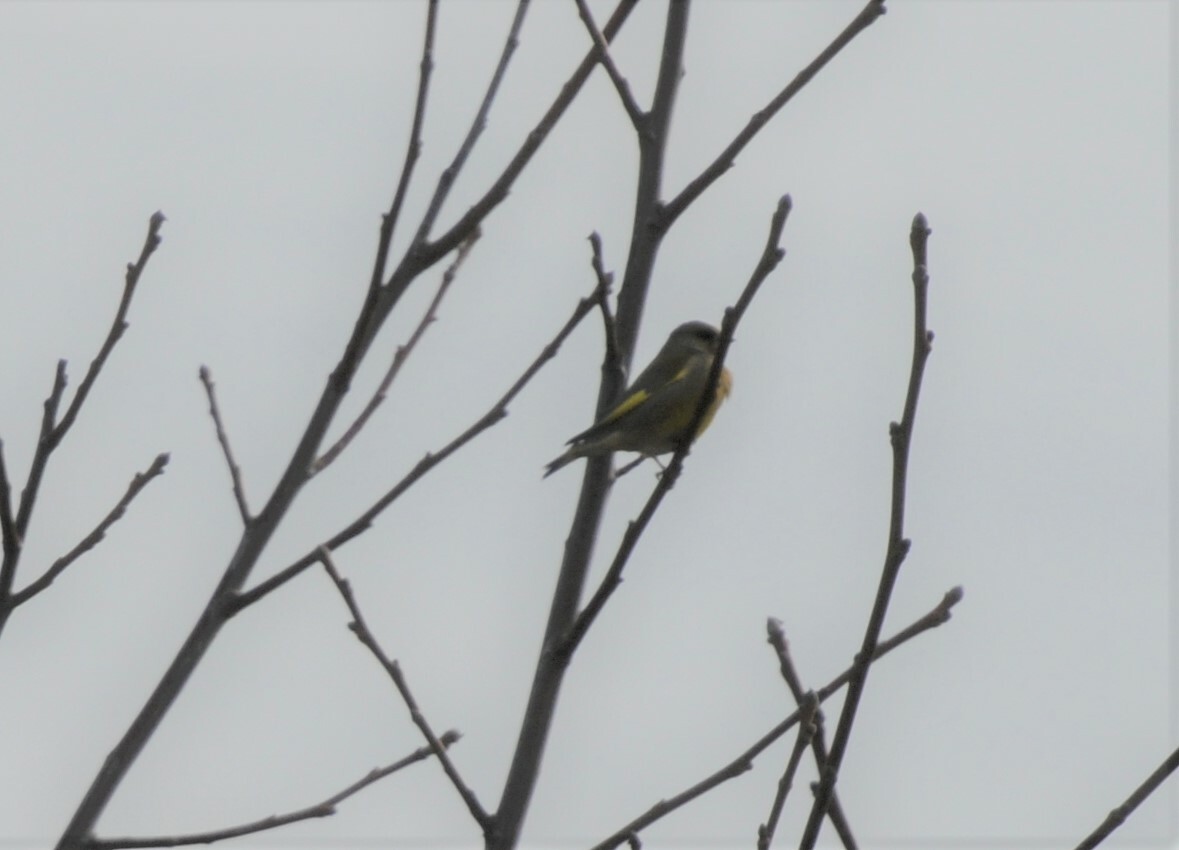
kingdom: Plantae
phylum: Tracheophyta
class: Liliopsida
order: Poales
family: Poaceae
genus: Chloris
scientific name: Chloris chloris
